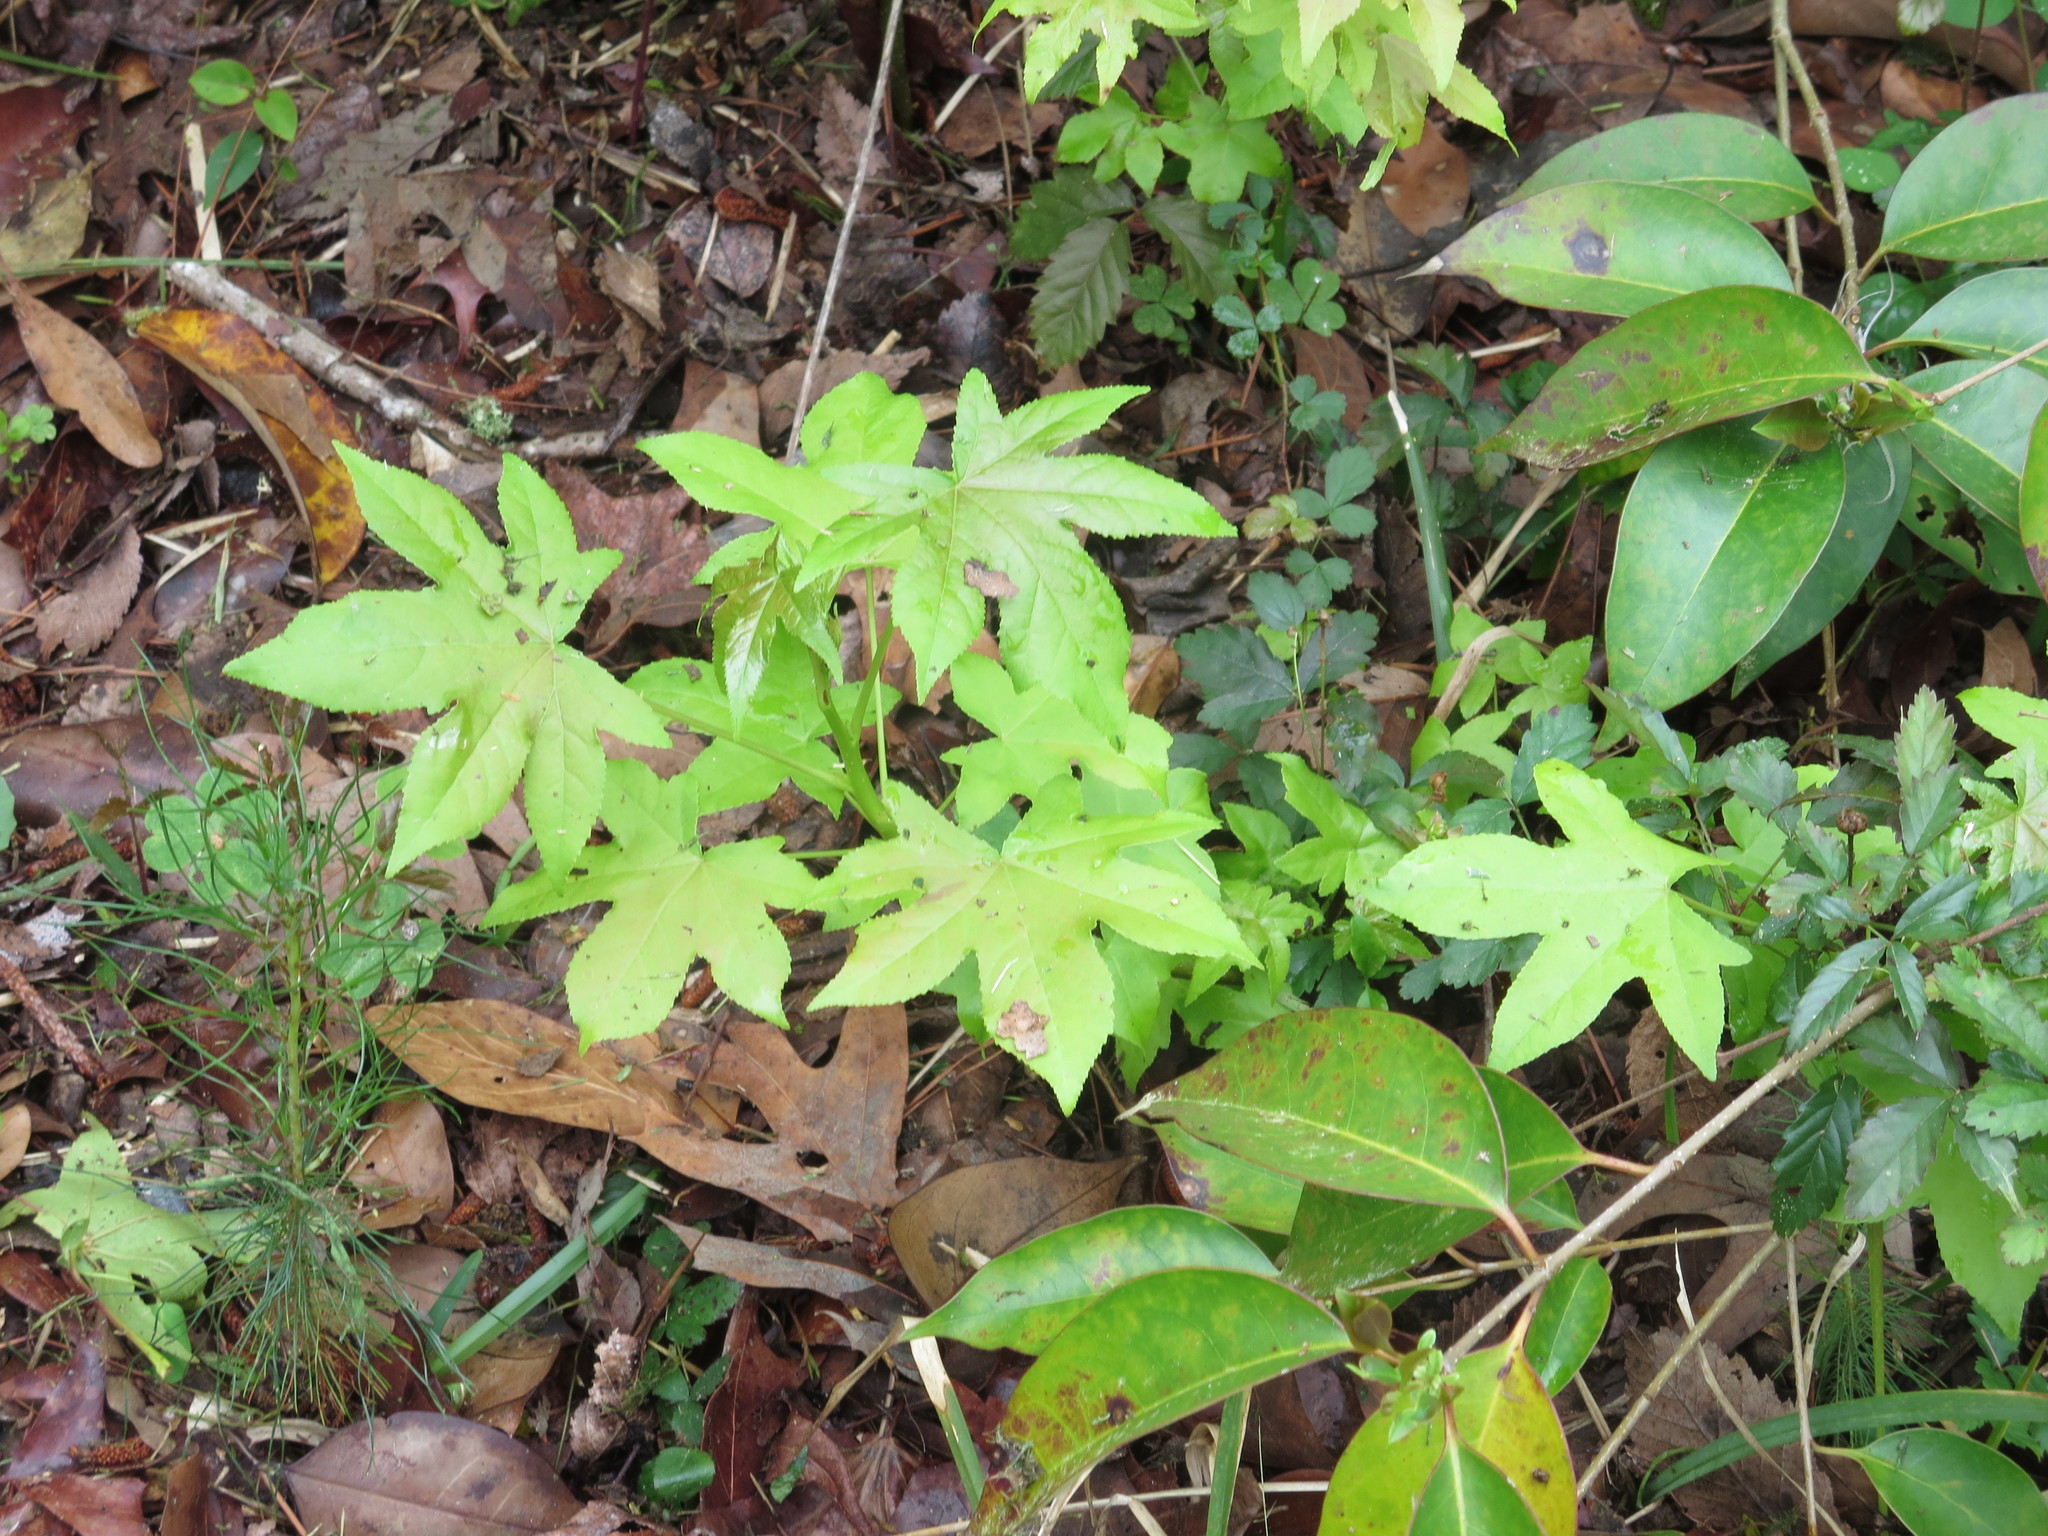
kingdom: Plantae
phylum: Tracheophyta
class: Magnoliopsida
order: Saxifragales
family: Altingiaceae
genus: Liquidambar
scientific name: Liquidambar styraciflua
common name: Sweet gum
